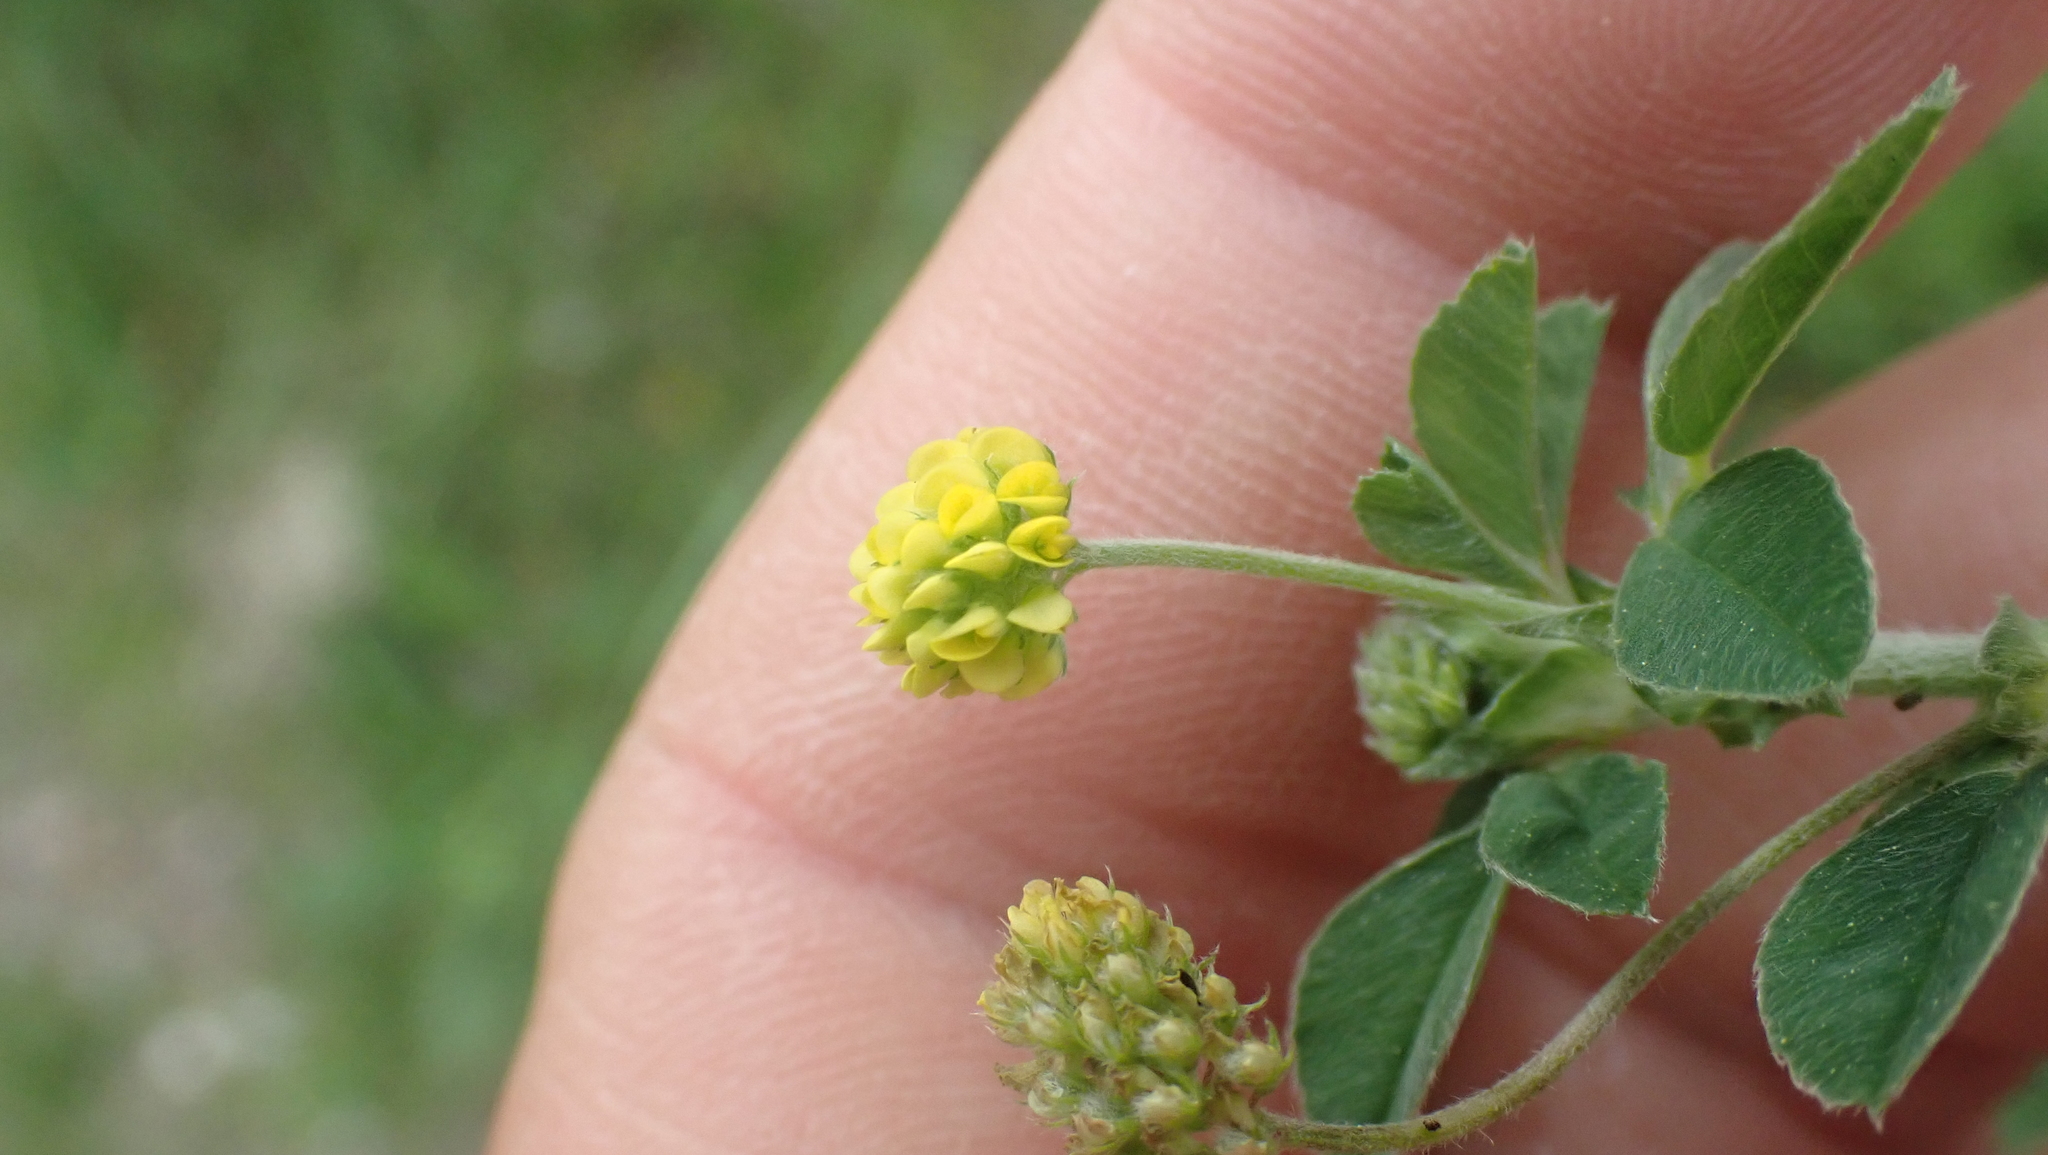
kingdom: Plantae
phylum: Tracheophyta
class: Magnoliopsida
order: Fabales
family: Fabaceae
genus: Medicago
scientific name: Medicago lupulina
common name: Black medick
